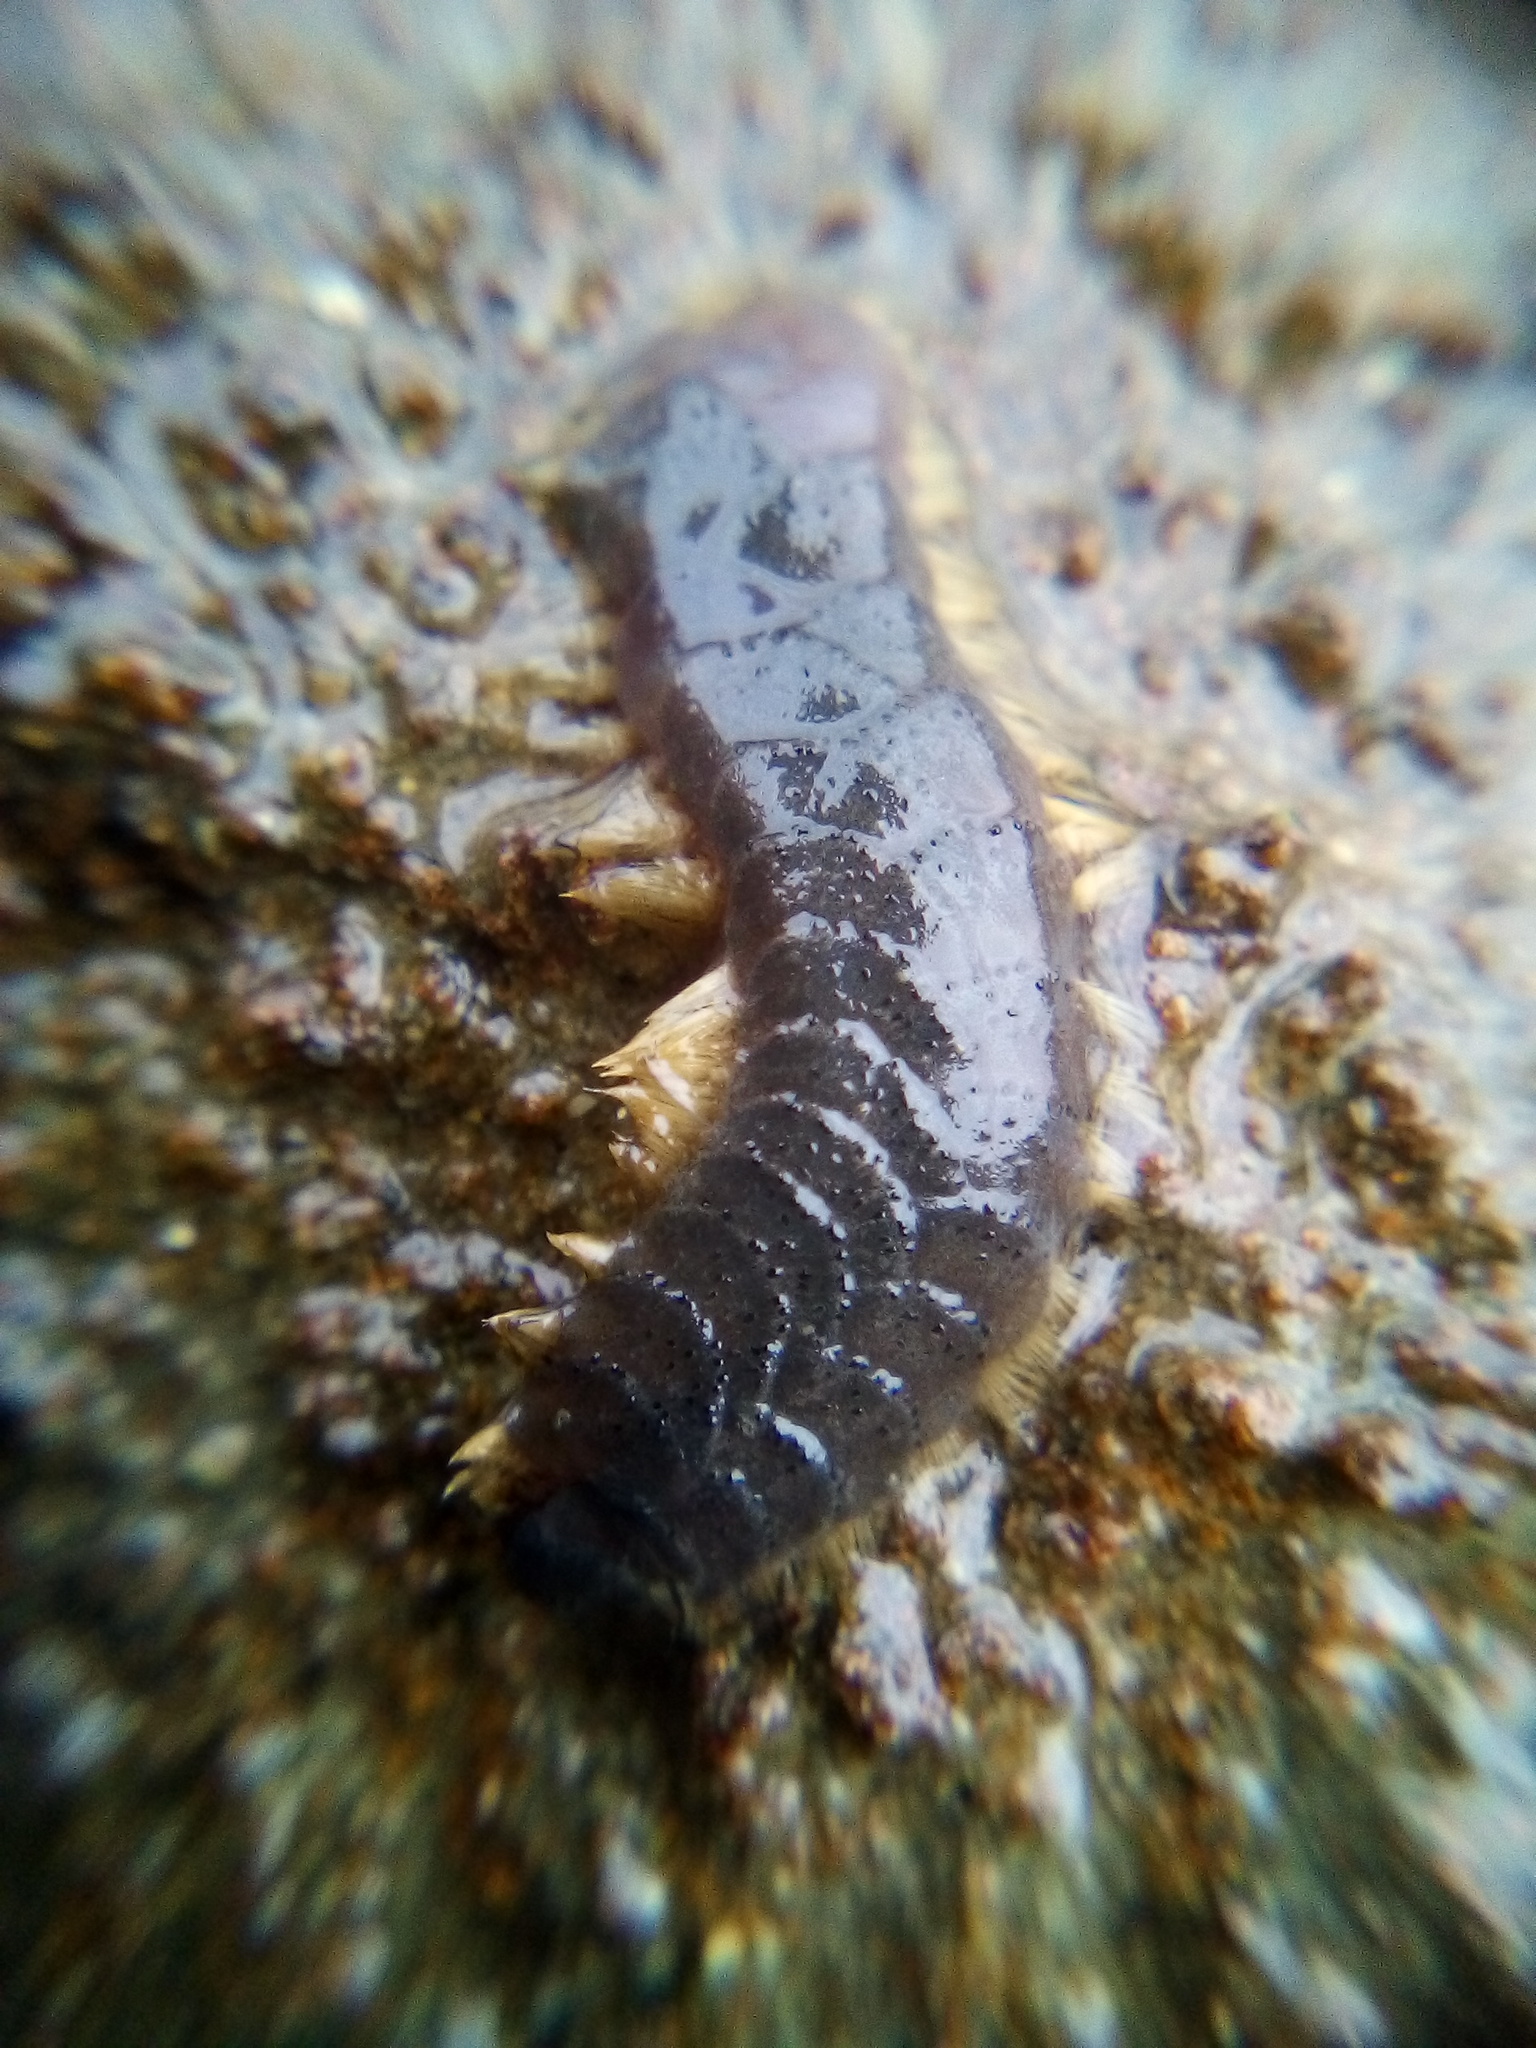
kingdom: Animalia
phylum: Annelida
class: Polychaeta
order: Phyllodocida
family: Polynoidae
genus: Paralepidonotus
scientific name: Paralepidonotus ampulliferus
